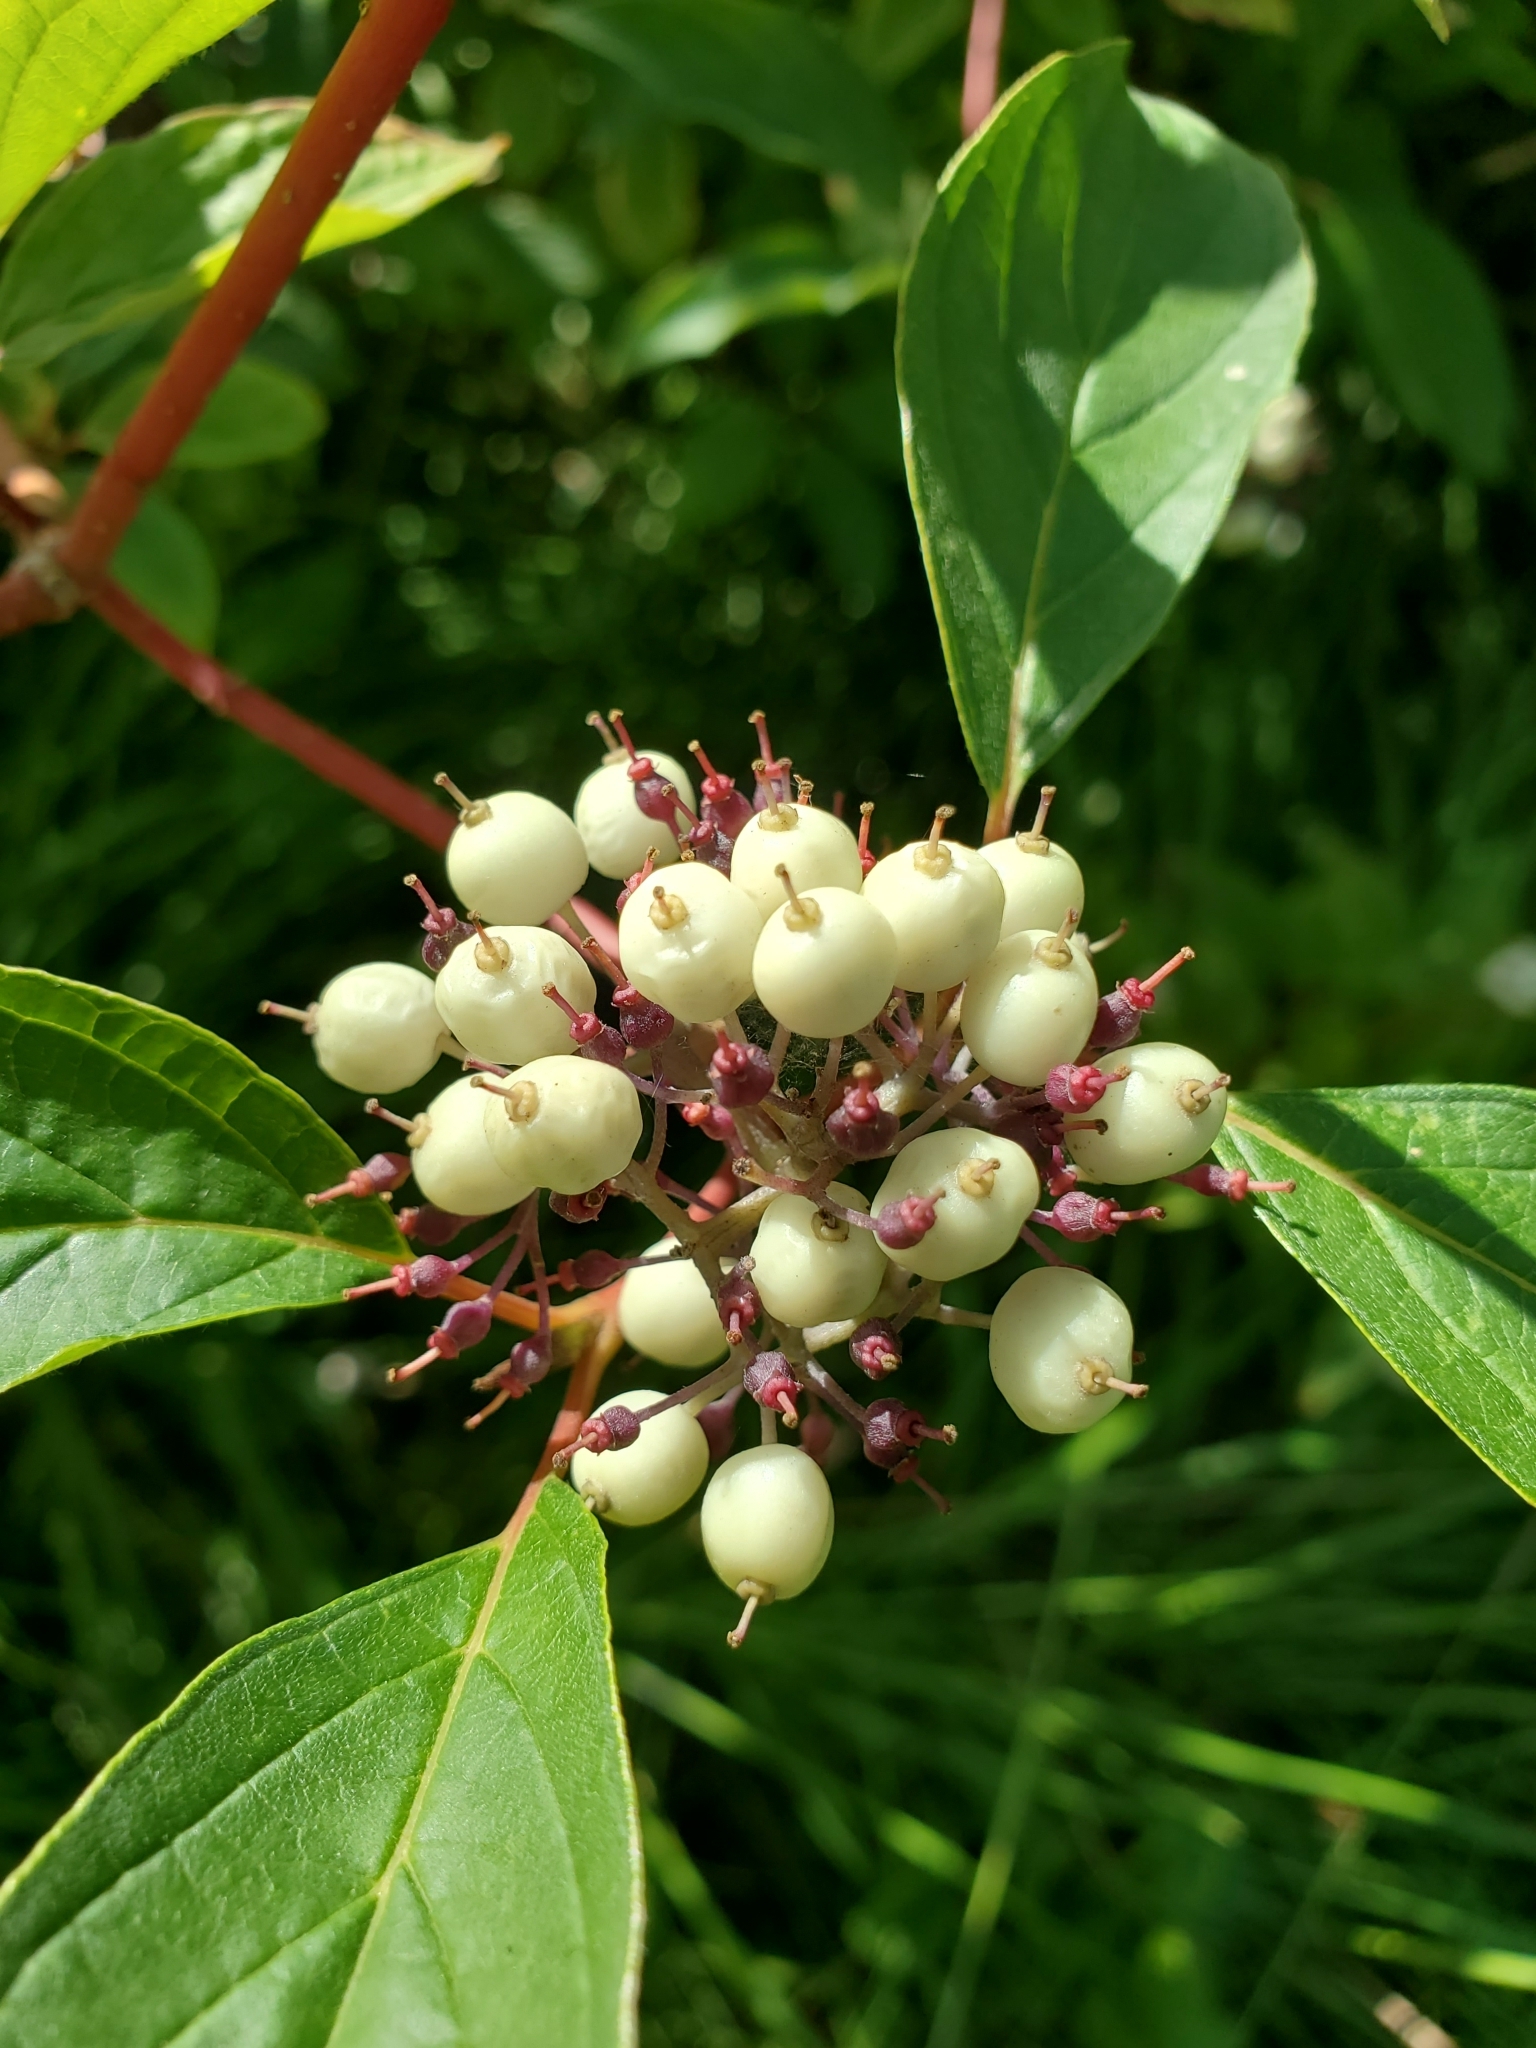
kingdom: Plantae
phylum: Tracheophyta
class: Magnoliopsida
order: Cornales
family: Cornaceae
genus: Cornus
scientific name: Cornus sericea
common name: Red-osier dogwood
